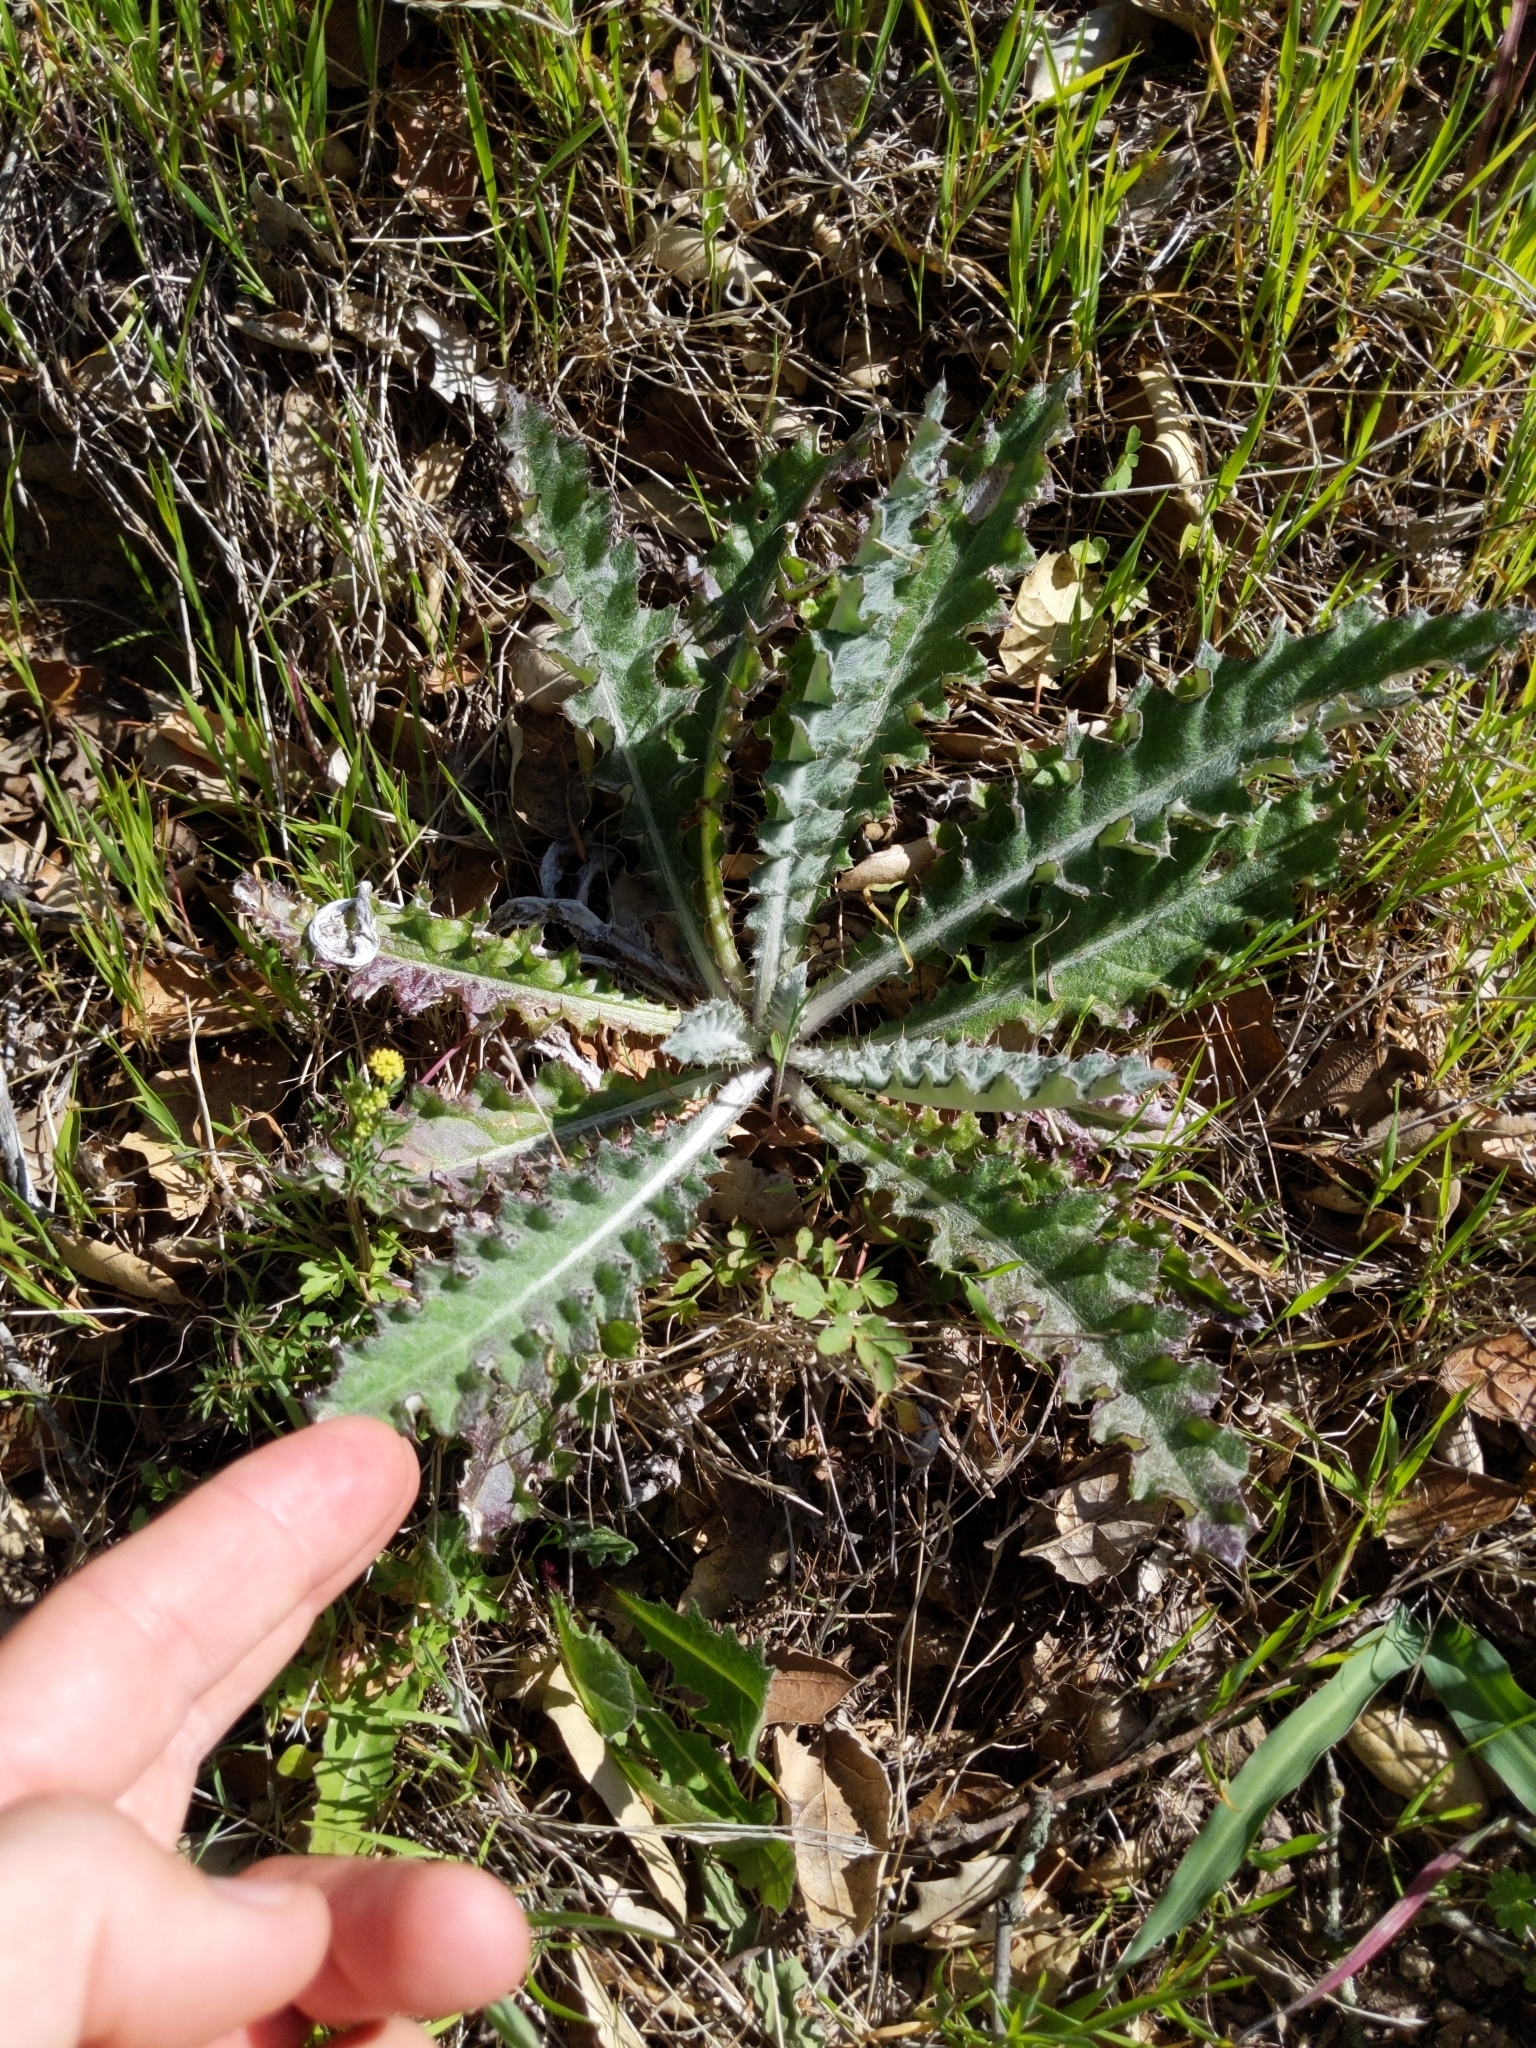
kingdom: Plantae
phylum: Tracheophyta
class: Magnoliopsida
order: Asterales
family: Asteraceae
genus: Cirsium
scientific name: Cirsium occidentale
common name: Western thistle
